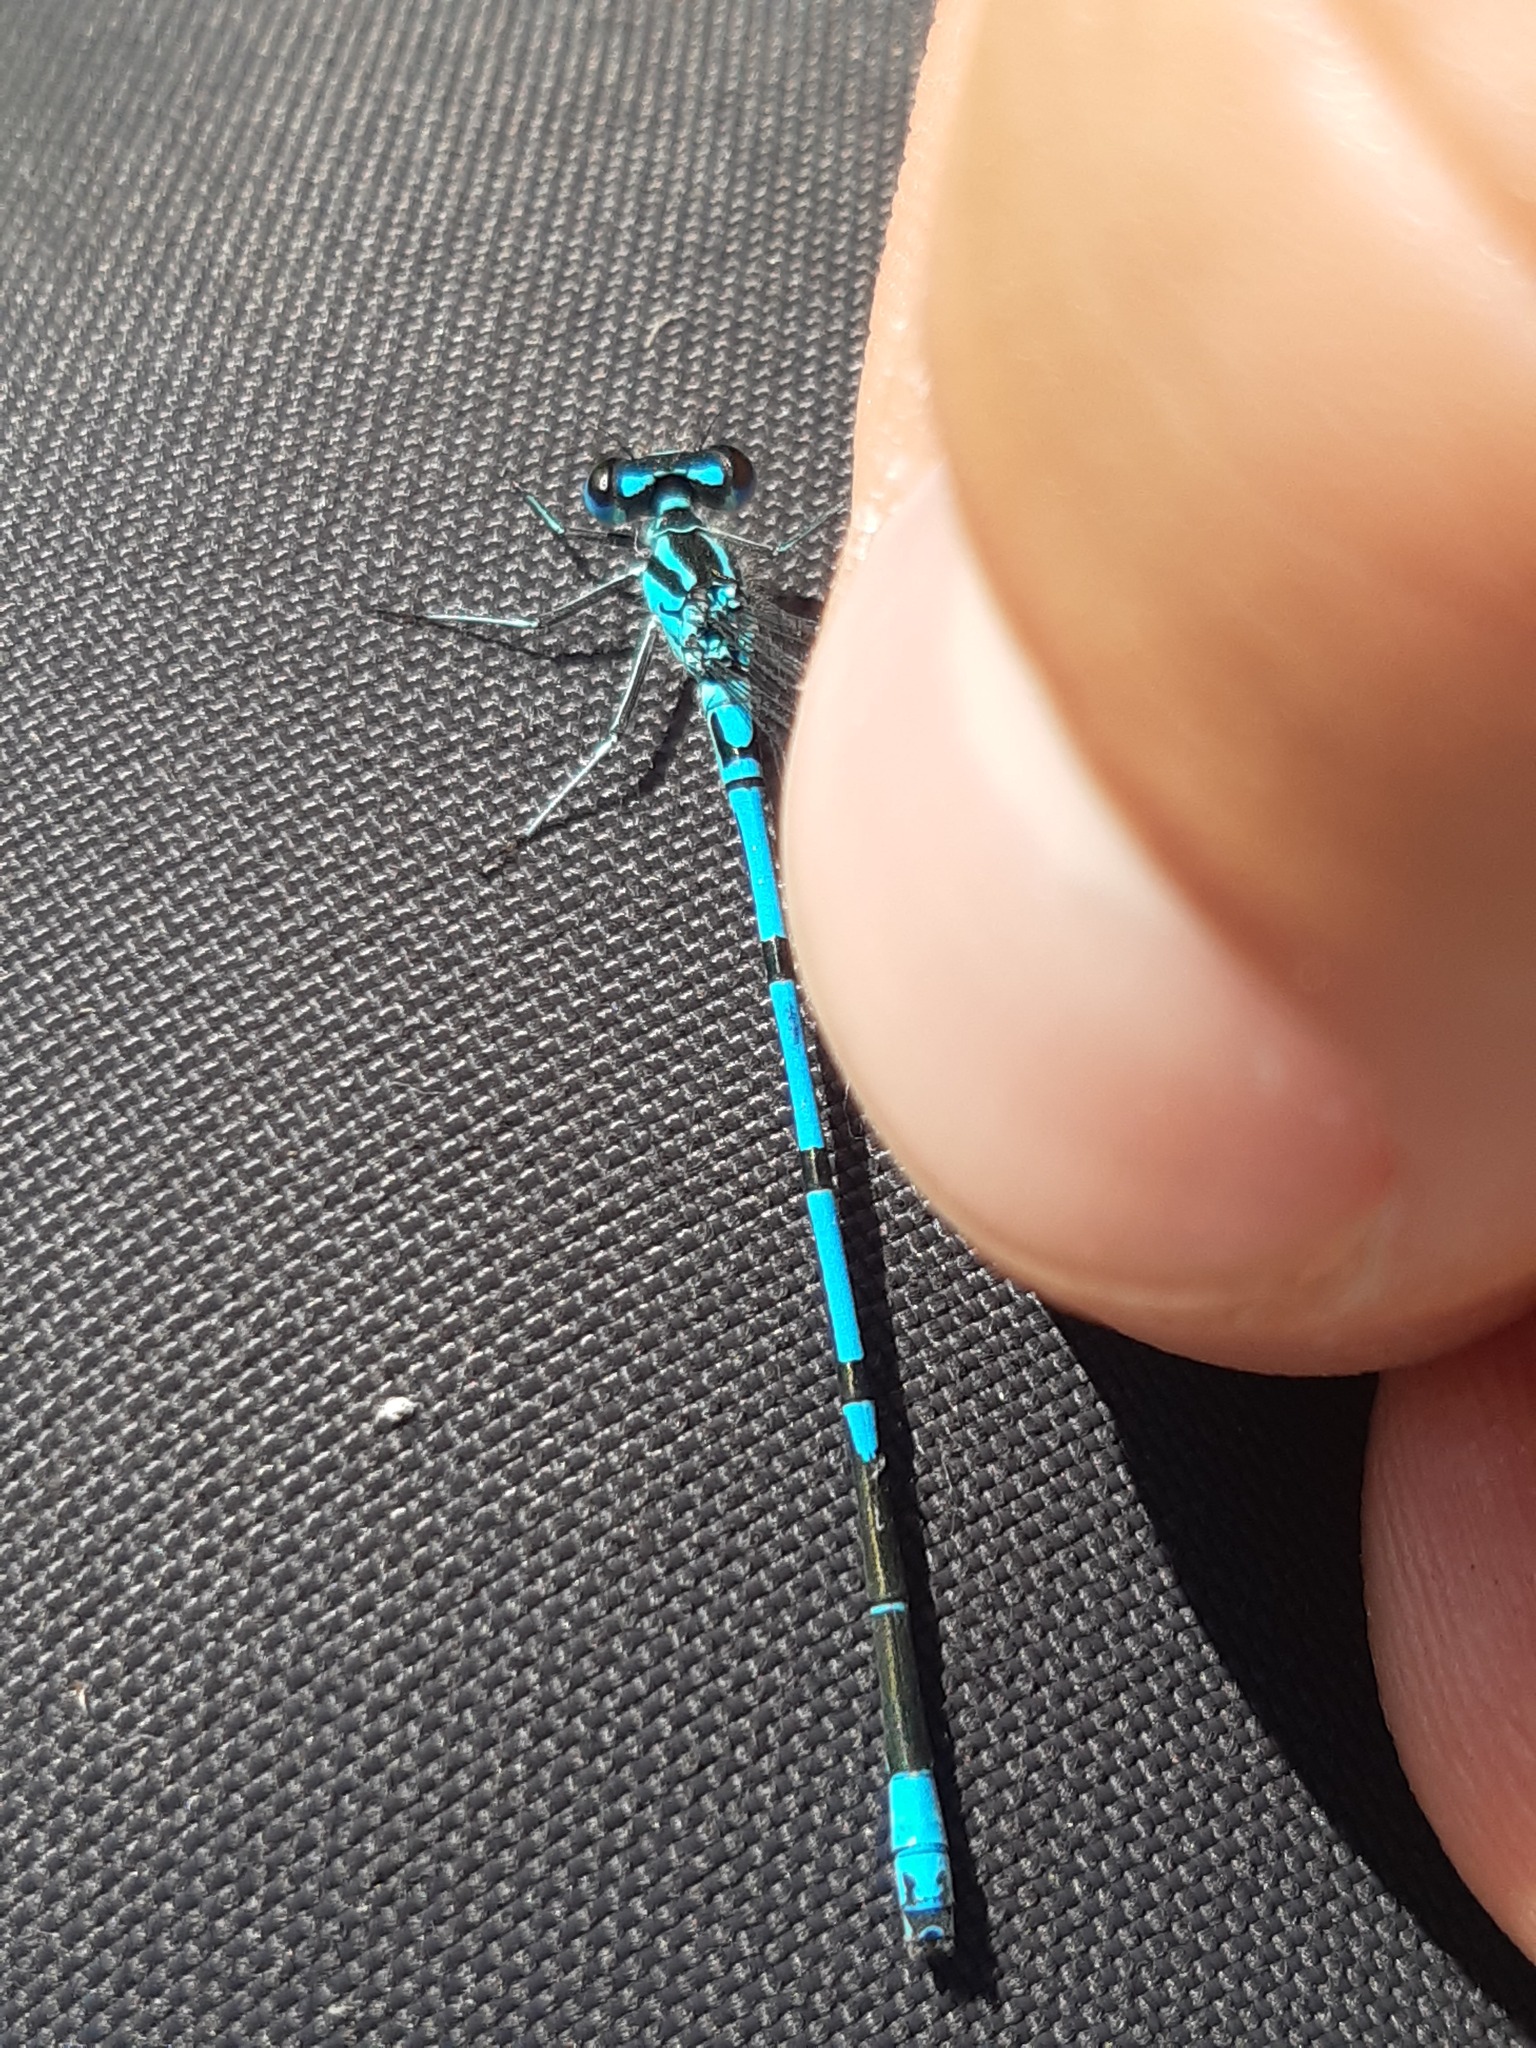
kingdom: Animalia
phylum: Arthropoda
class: Insecta
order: Odonata
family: Coenagrionidae
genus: Coenagrion
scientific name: Coenagrion puella
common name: Azure damselfly
